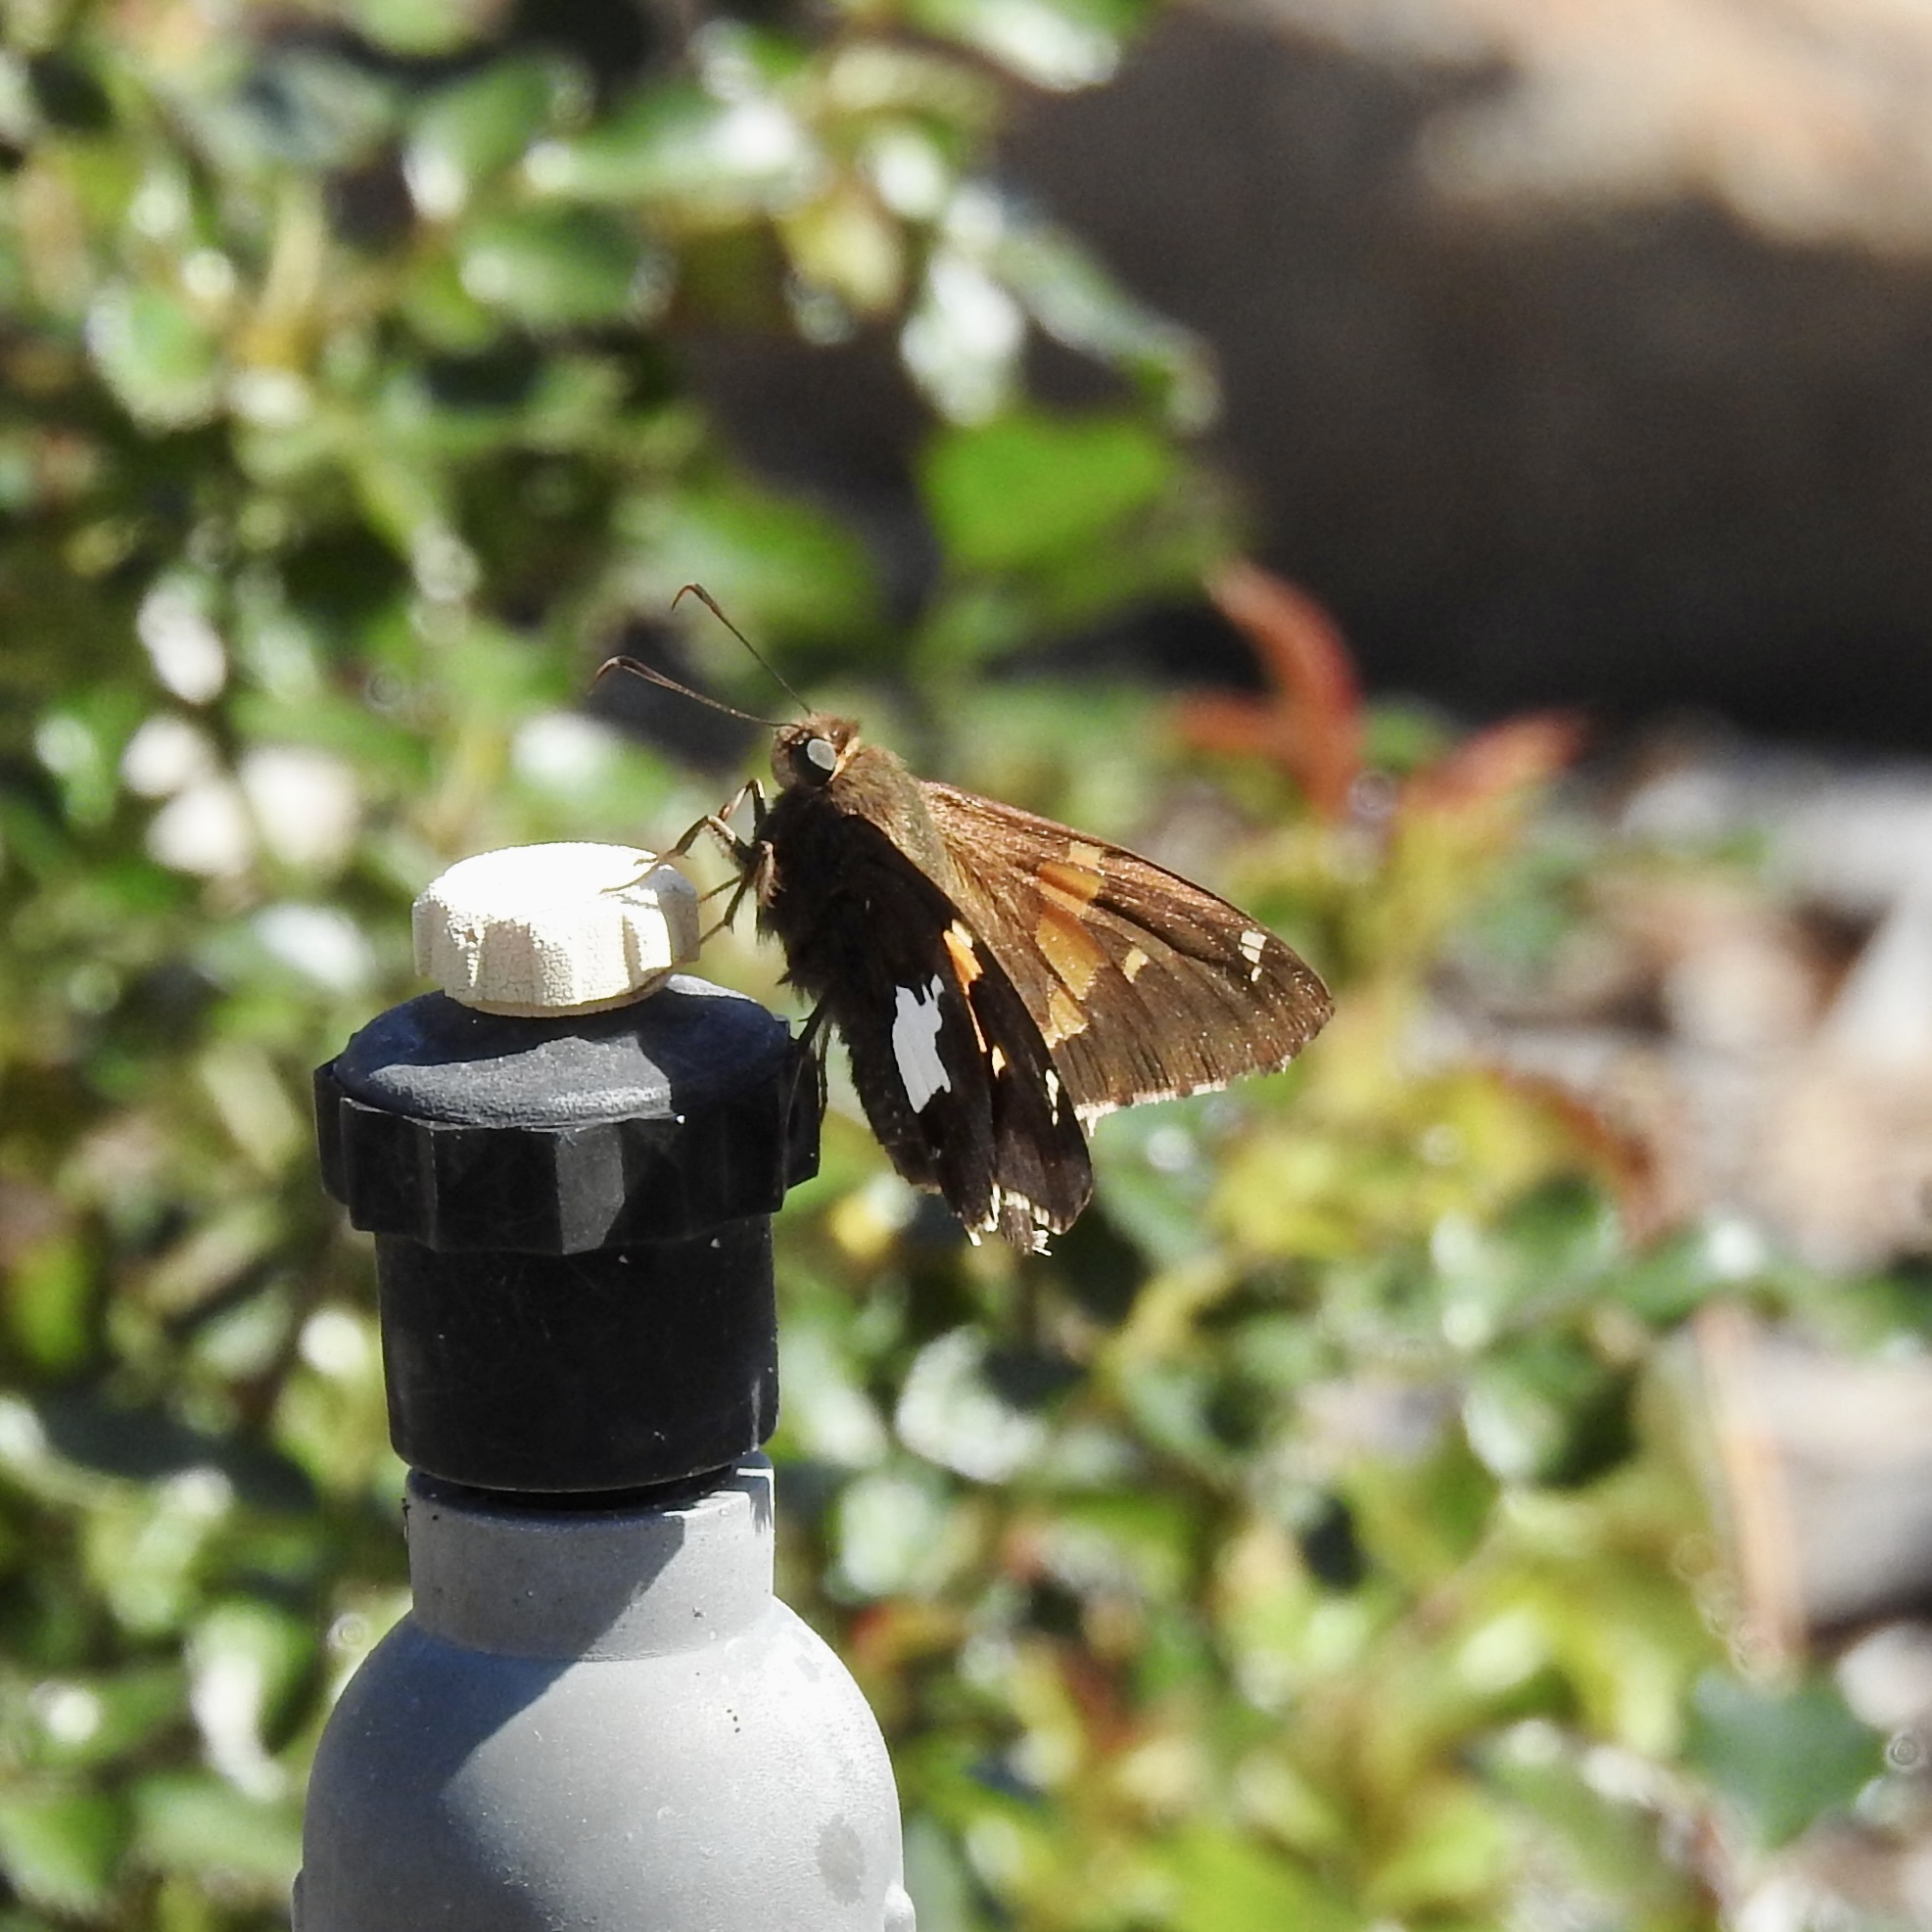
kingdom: Animalia
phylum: Arthropoda
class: Insecta
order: Lepidoptera
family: Hesperiidae
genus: Epargyreus
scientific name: Epargyreus clarus
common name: Silver-spotted skipper
